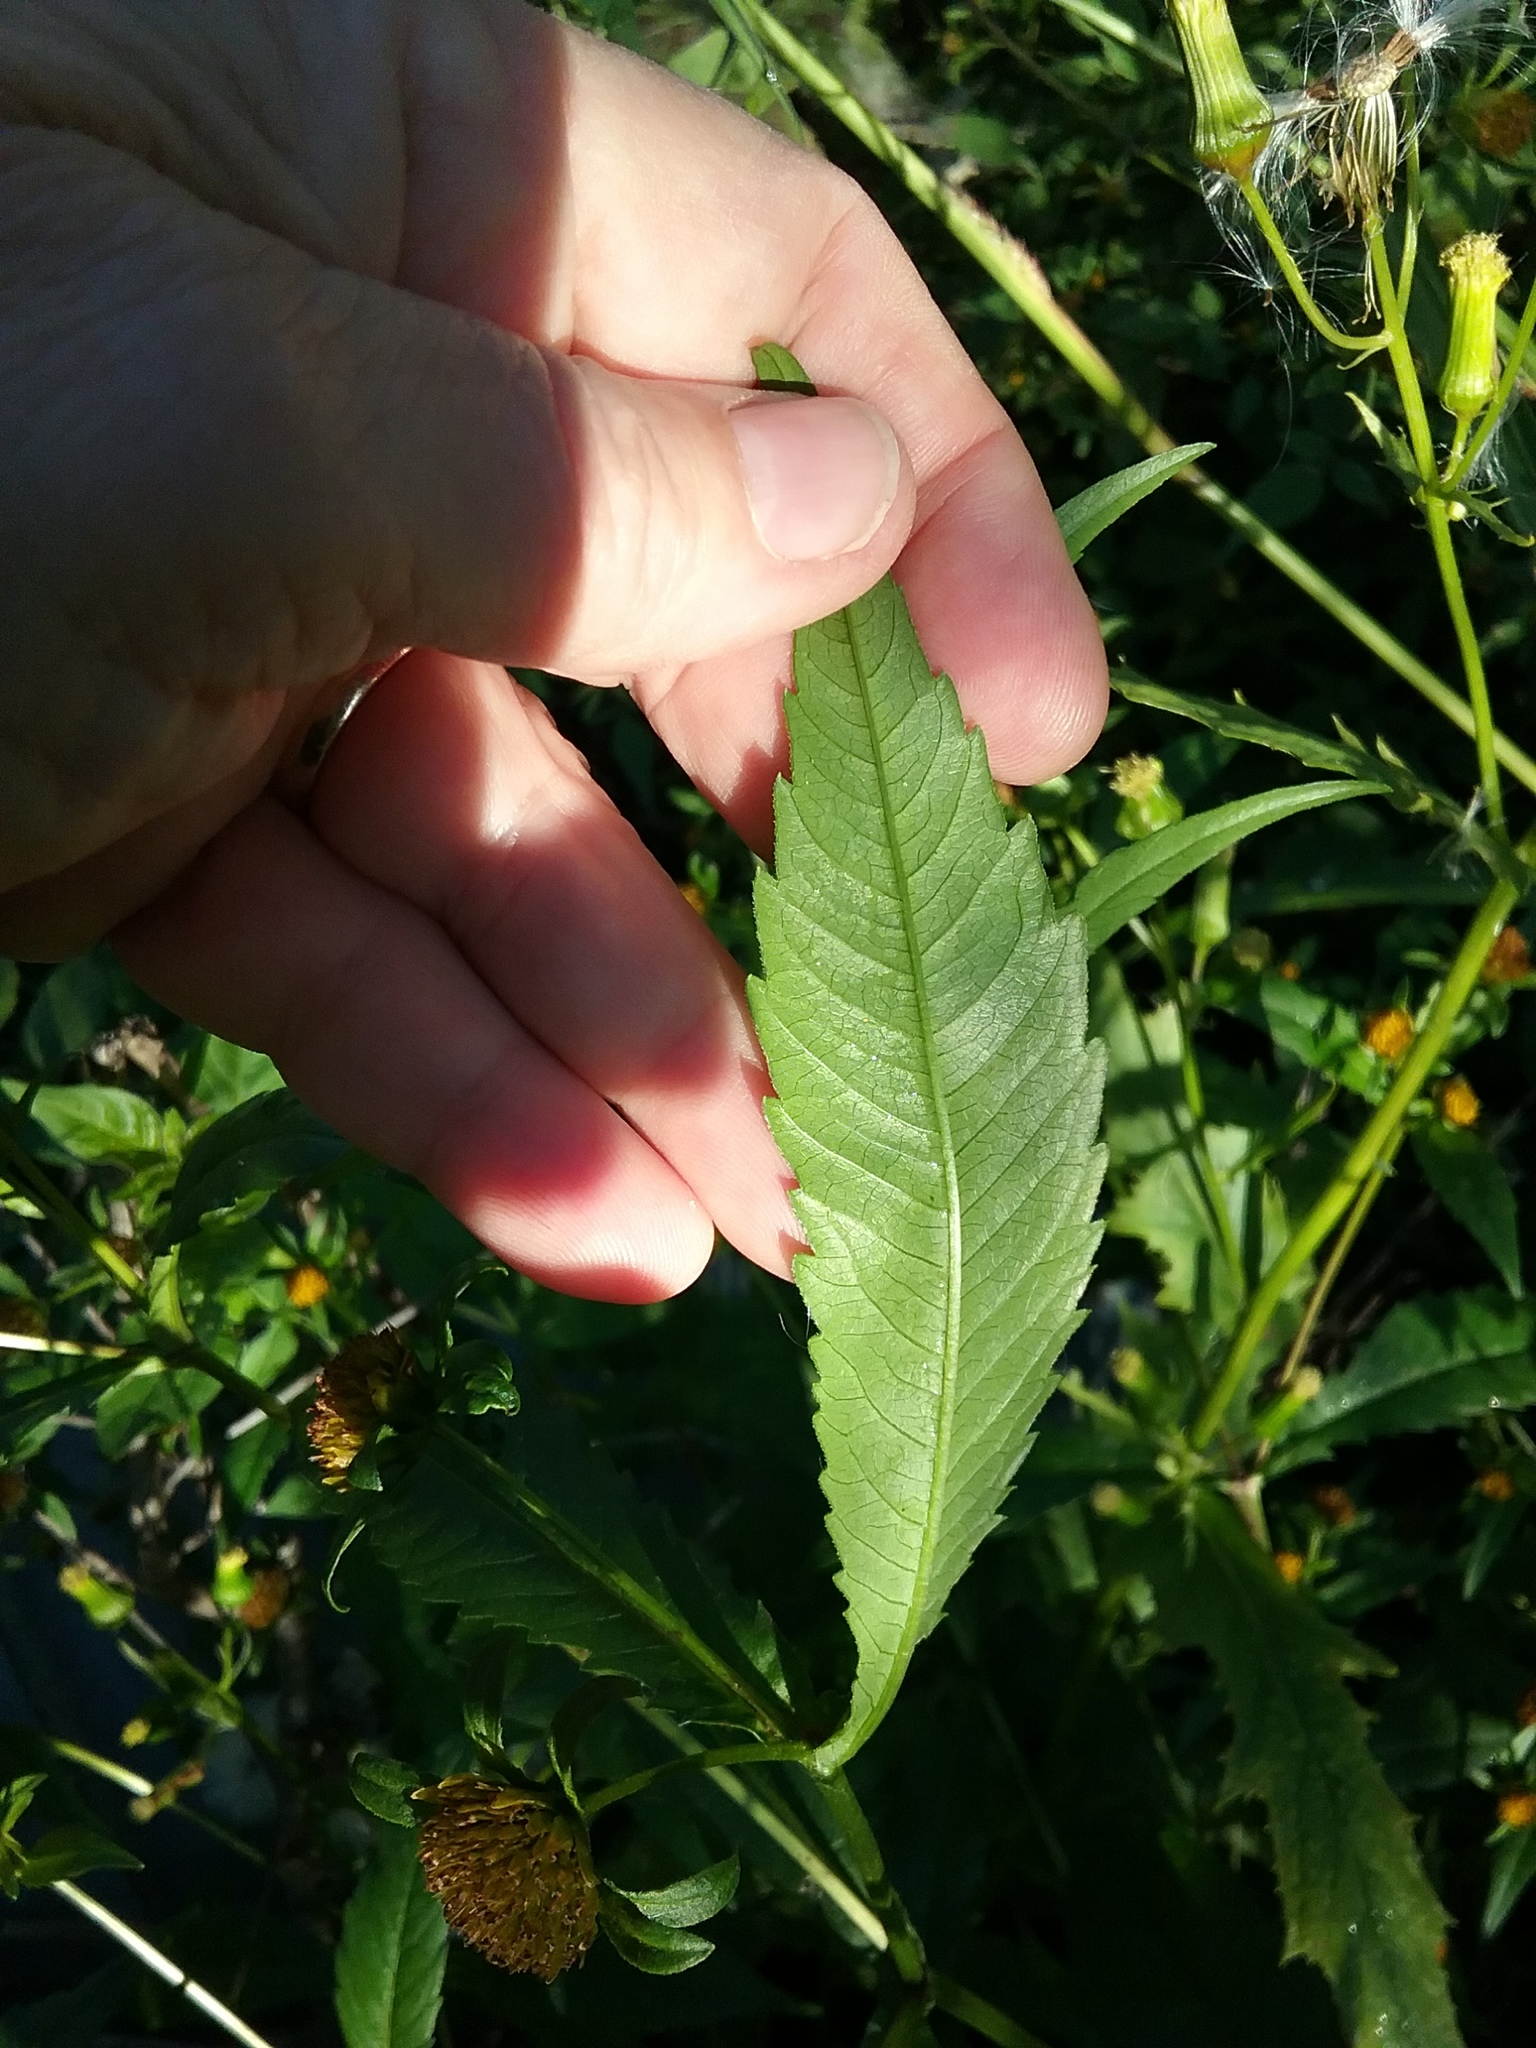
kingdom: Plantae
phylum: Tracheophyta
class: Magnoliopsida
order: Asterales
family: Asteraceae
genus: Bidens
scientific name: Bidens cernua
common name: Nodding bur-marigold
